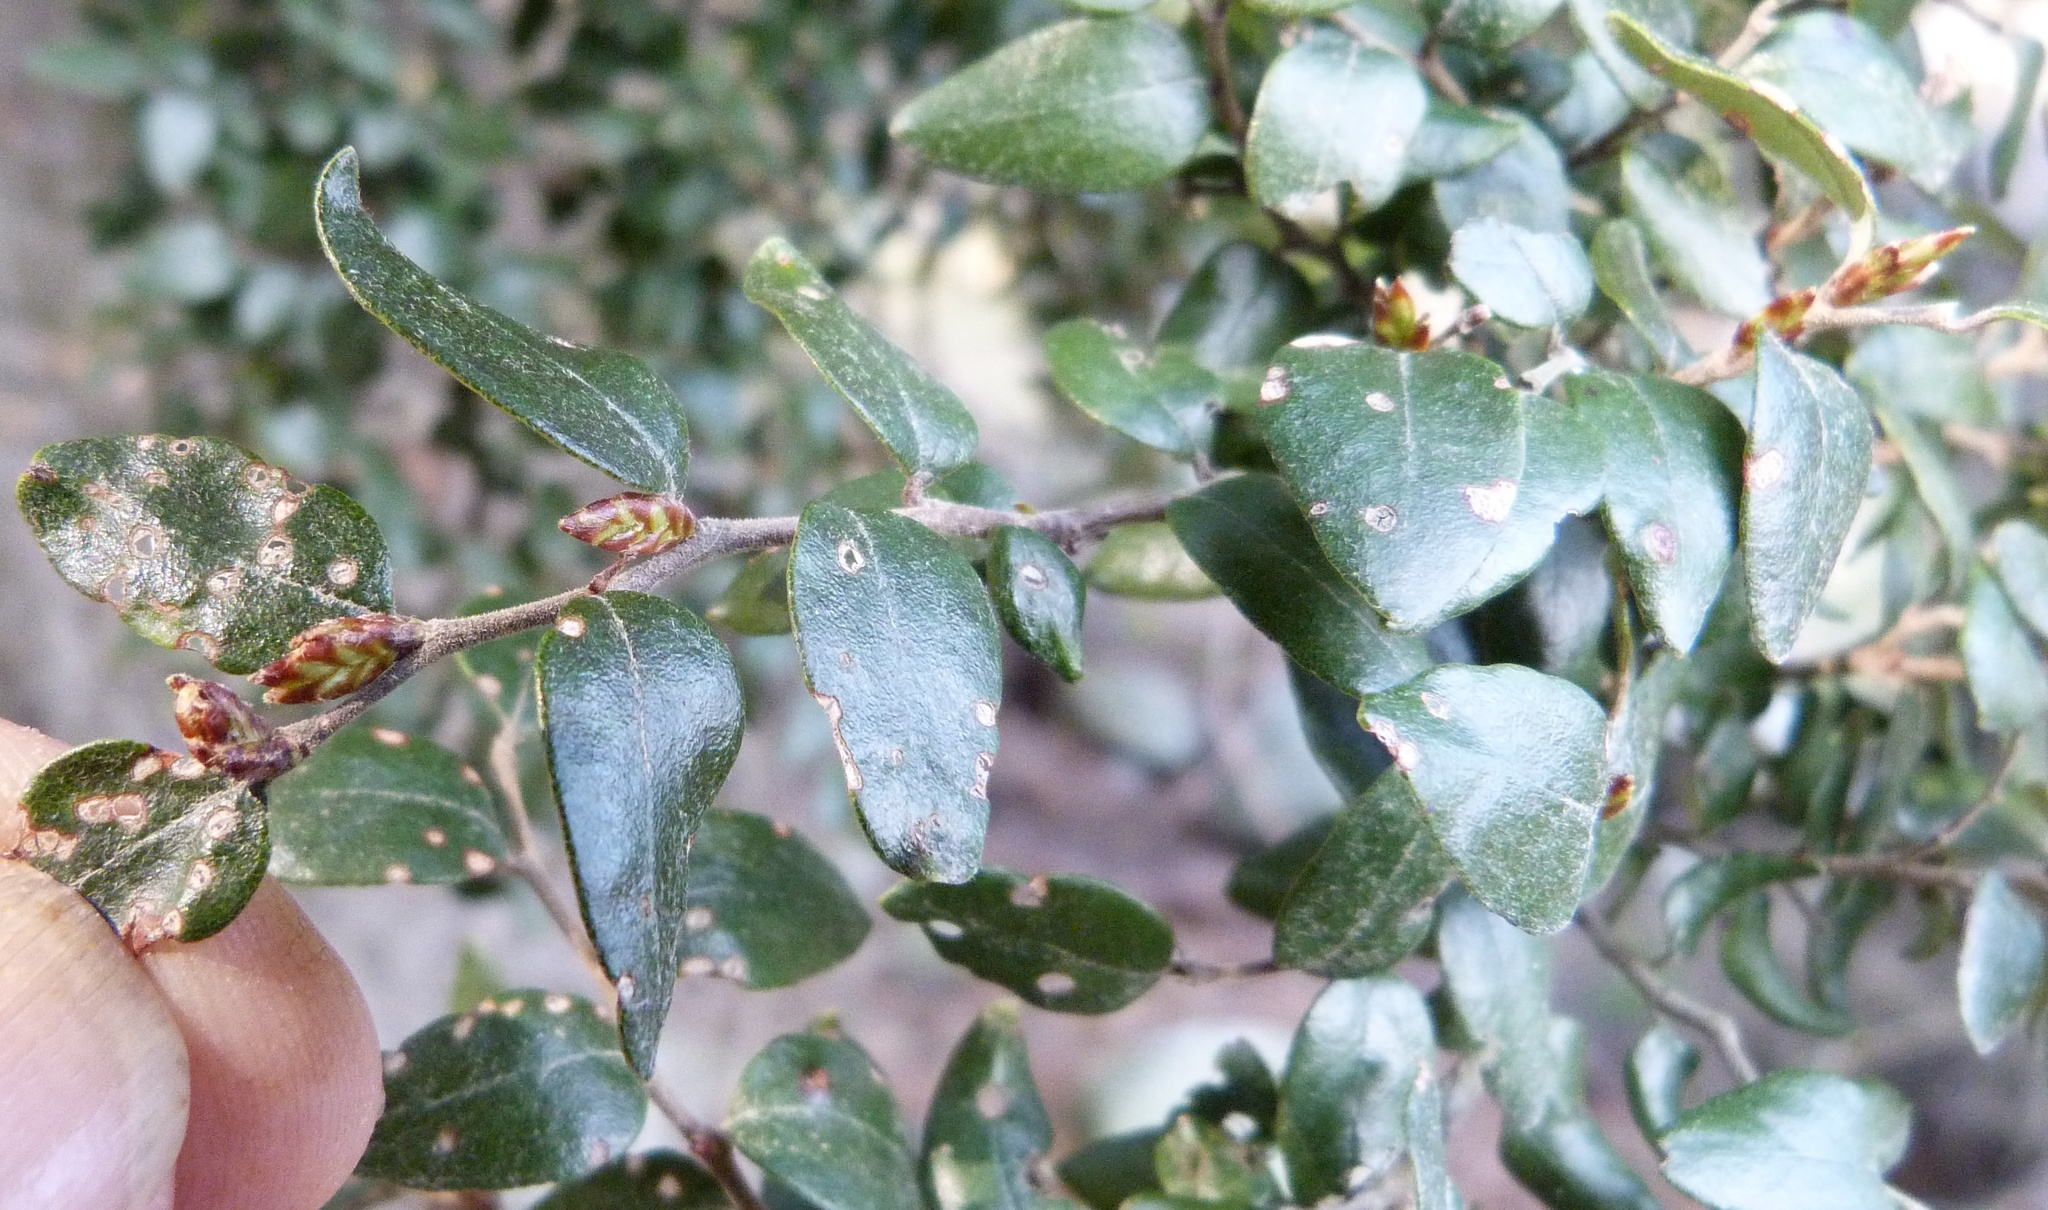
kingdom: Plantae
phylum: Tracheophyta
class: Magnoliopsida
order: Fagales
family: Nothofagaceae
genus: Nothofagus
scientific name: Nothofagus cliffortioides
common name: Mountain beech
